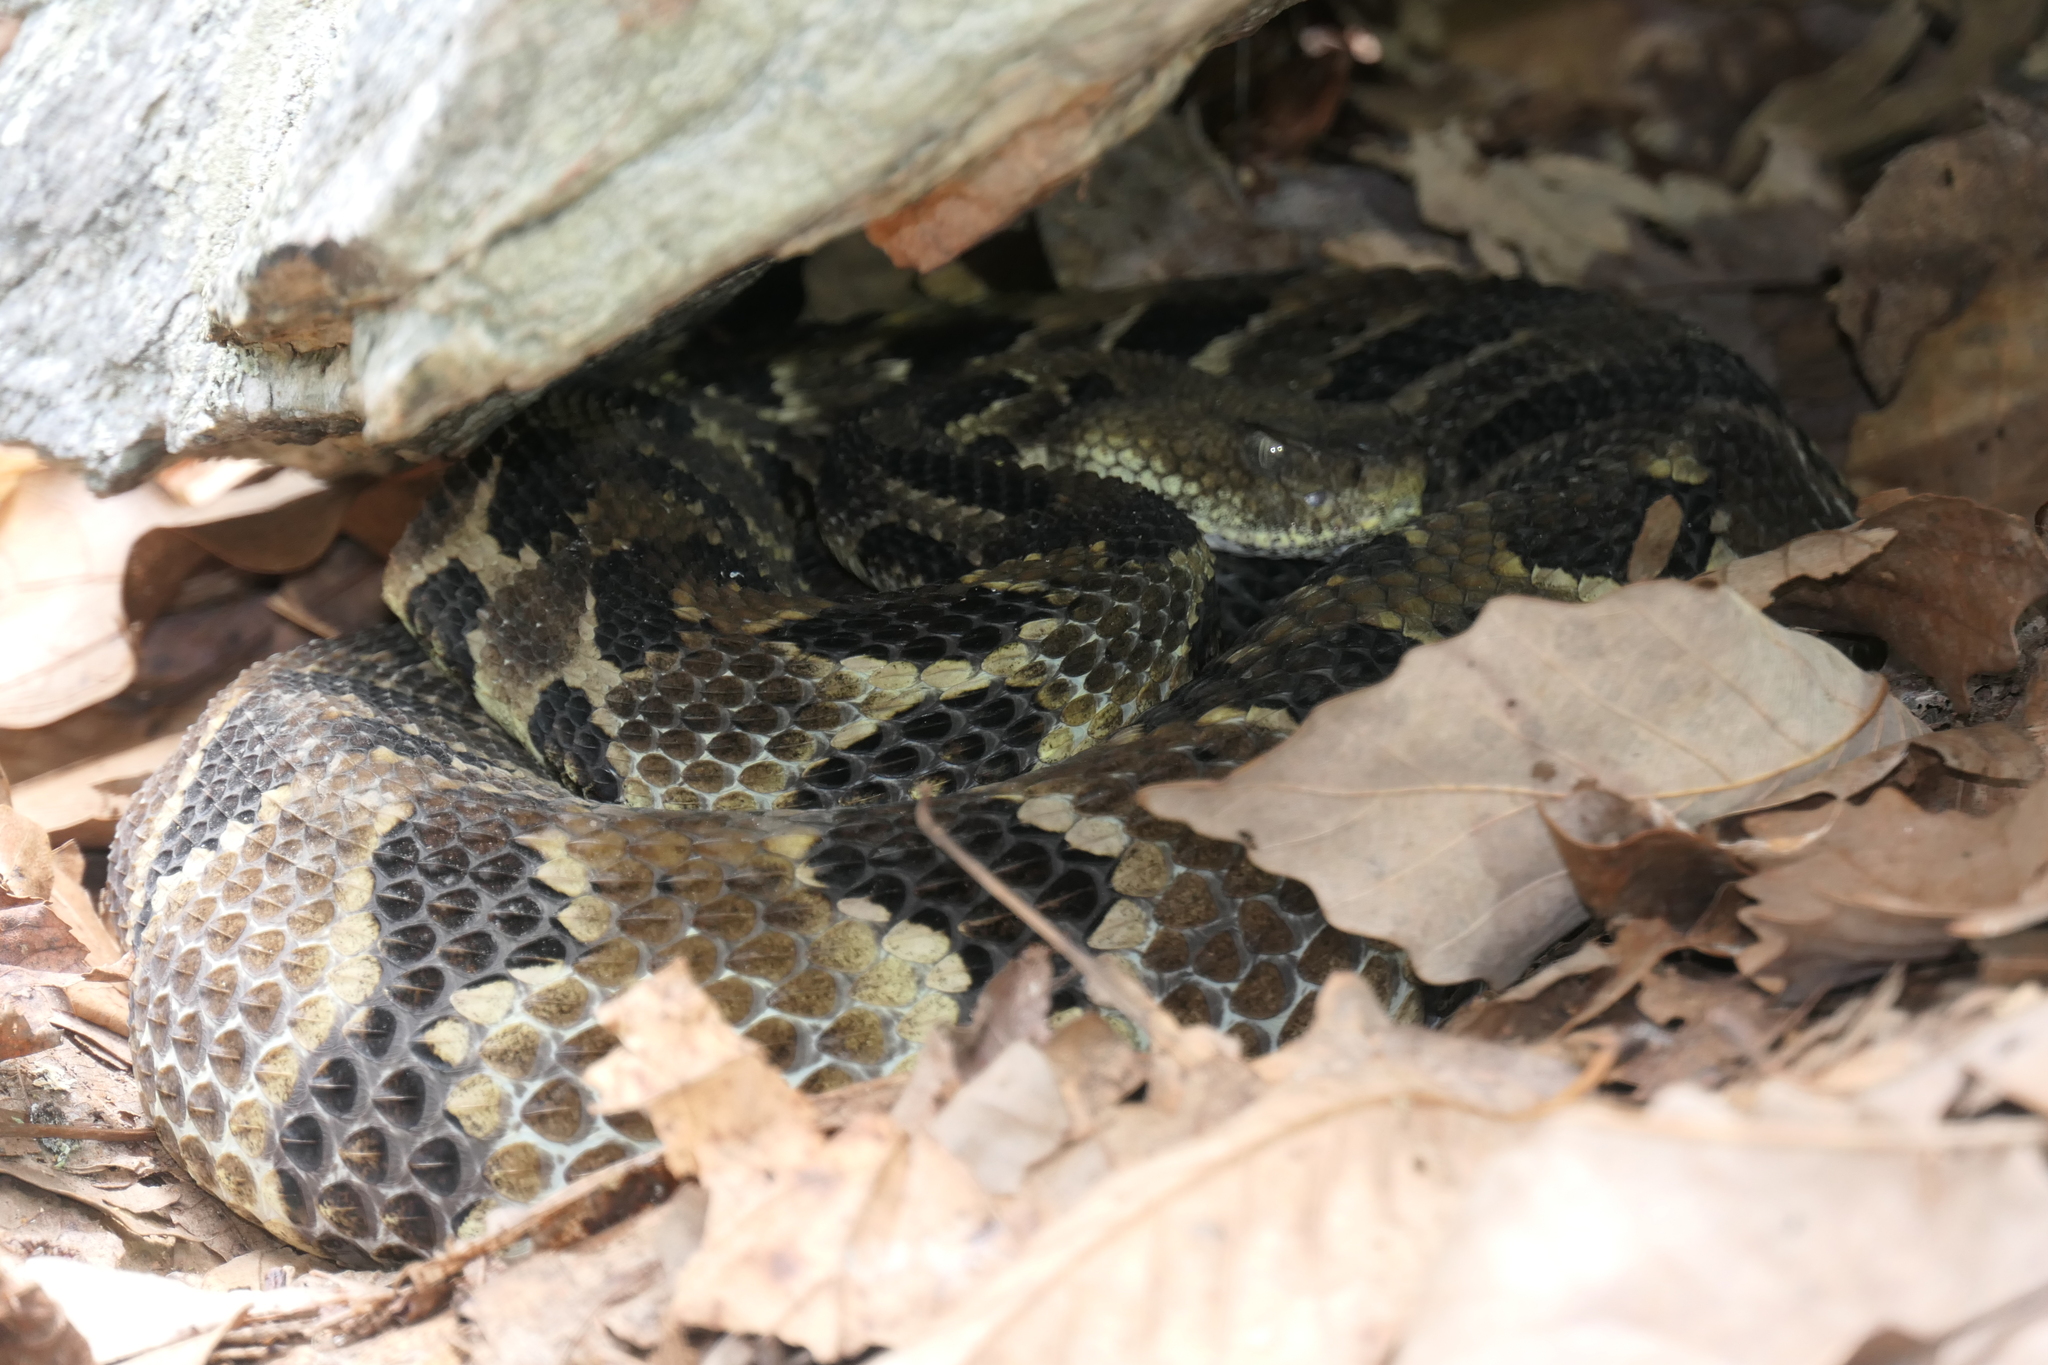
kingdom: Animalia
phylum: Chordata
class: Squamata
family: Viperidae
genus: Crotalus
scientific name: Crotalus horridus
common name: Timber rattlesnake
